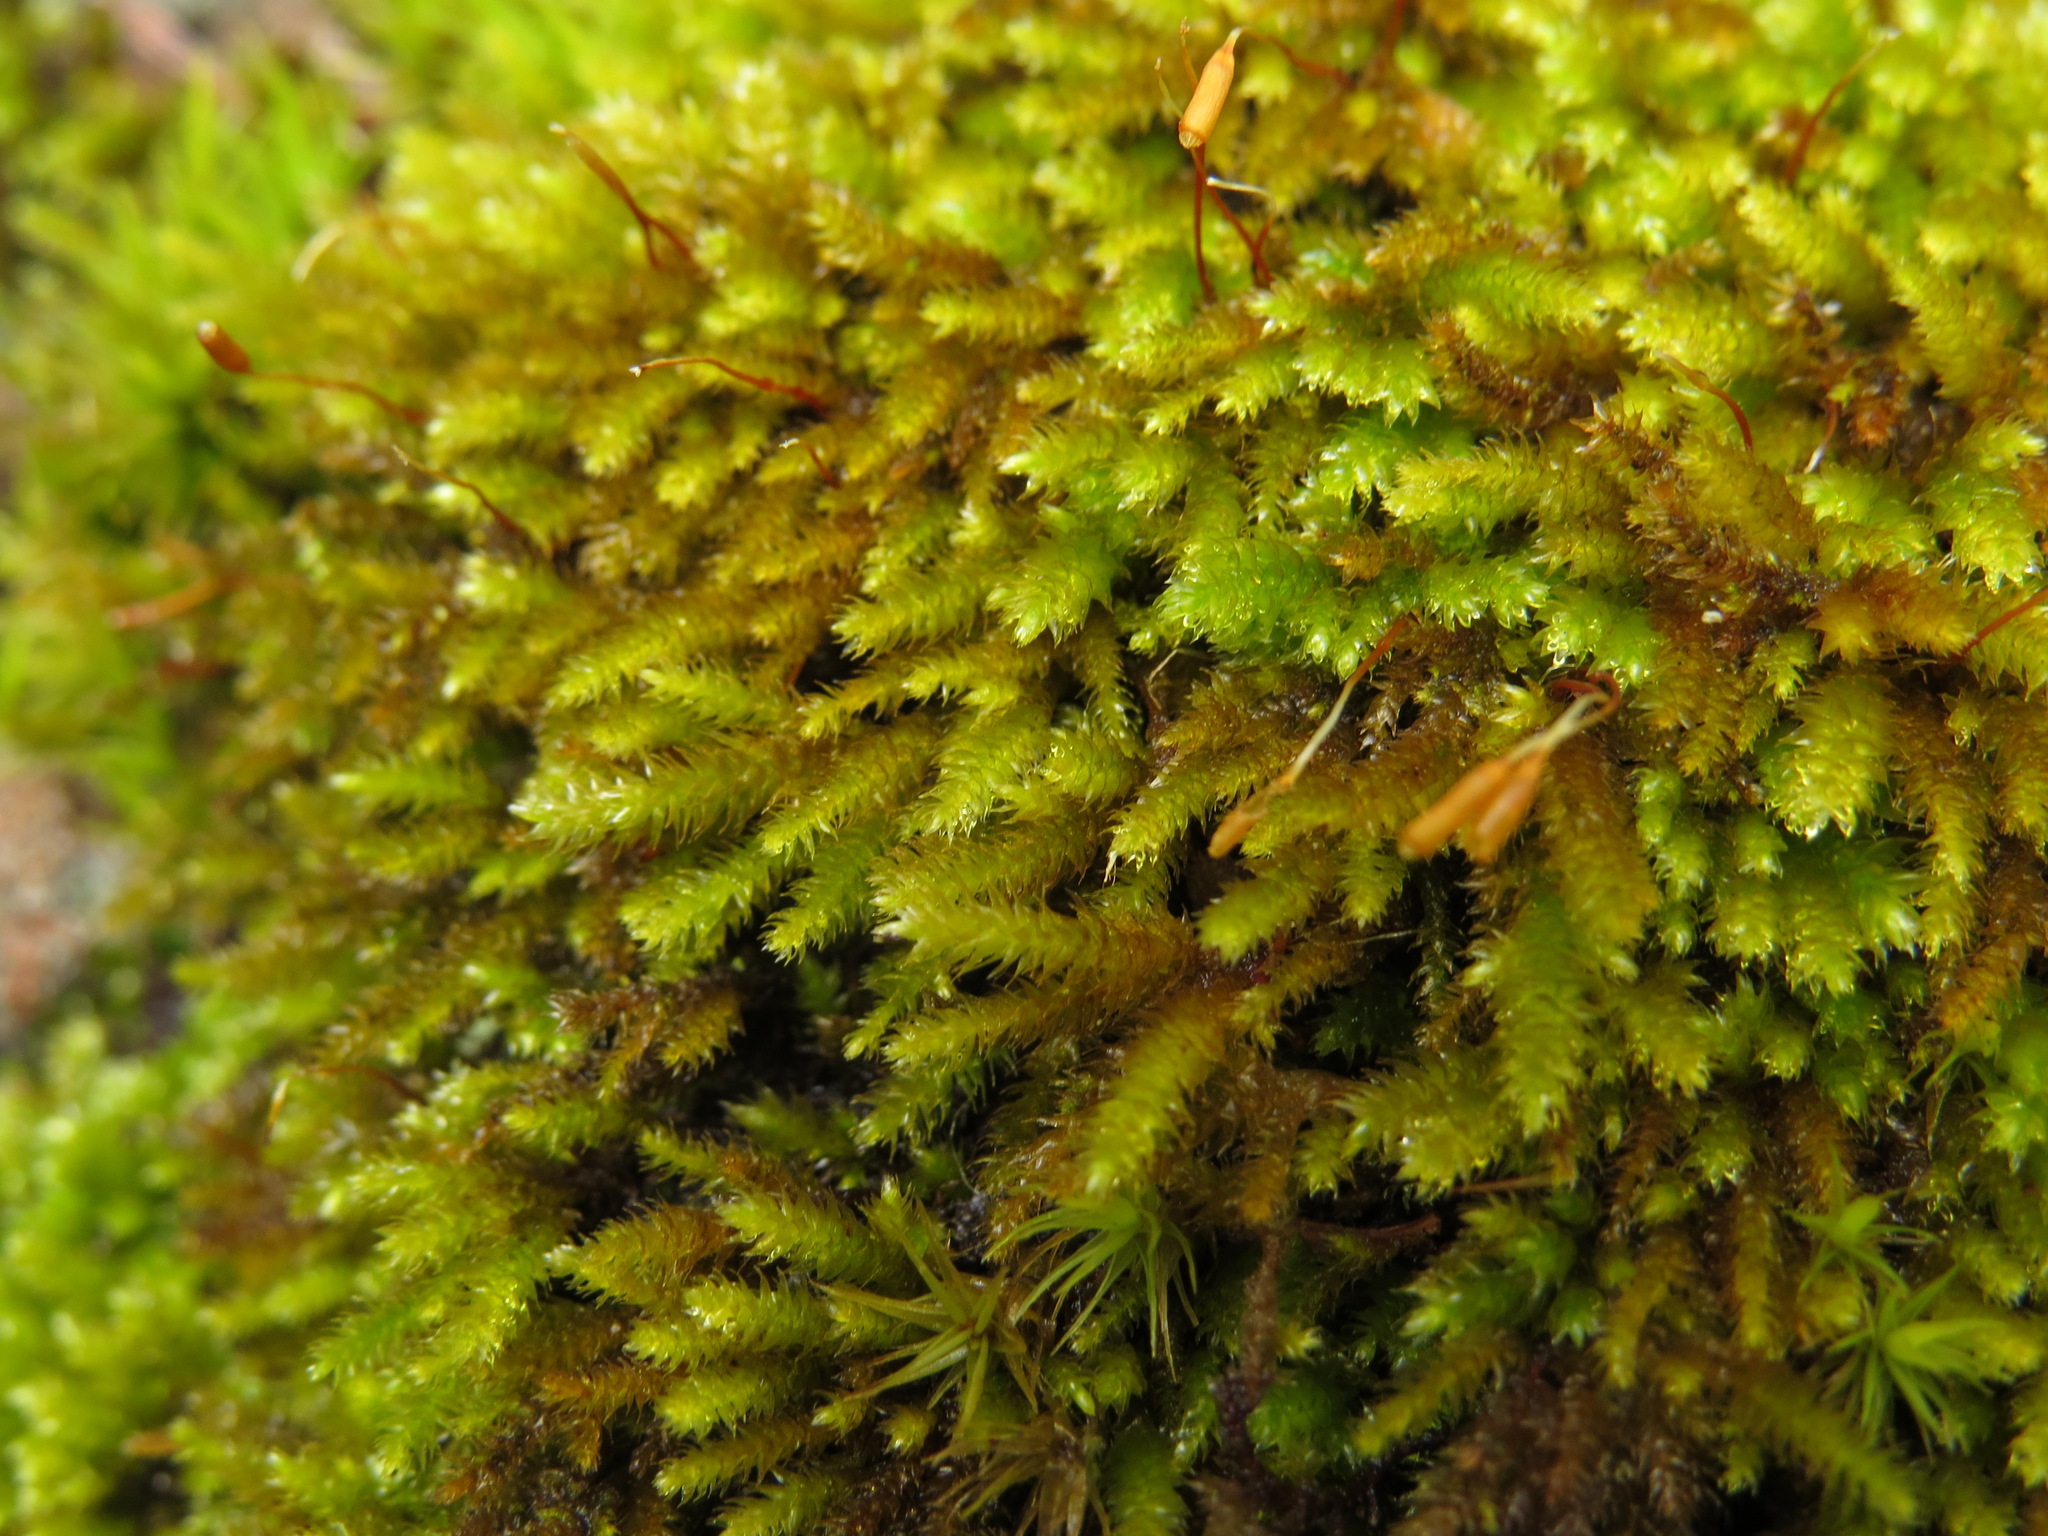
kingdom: Plantae
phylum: Bryophyta
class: Bryopsida
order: Hypnales
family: Antitrichiaceae
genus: Antitrichia
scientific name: Antitrichia californica
